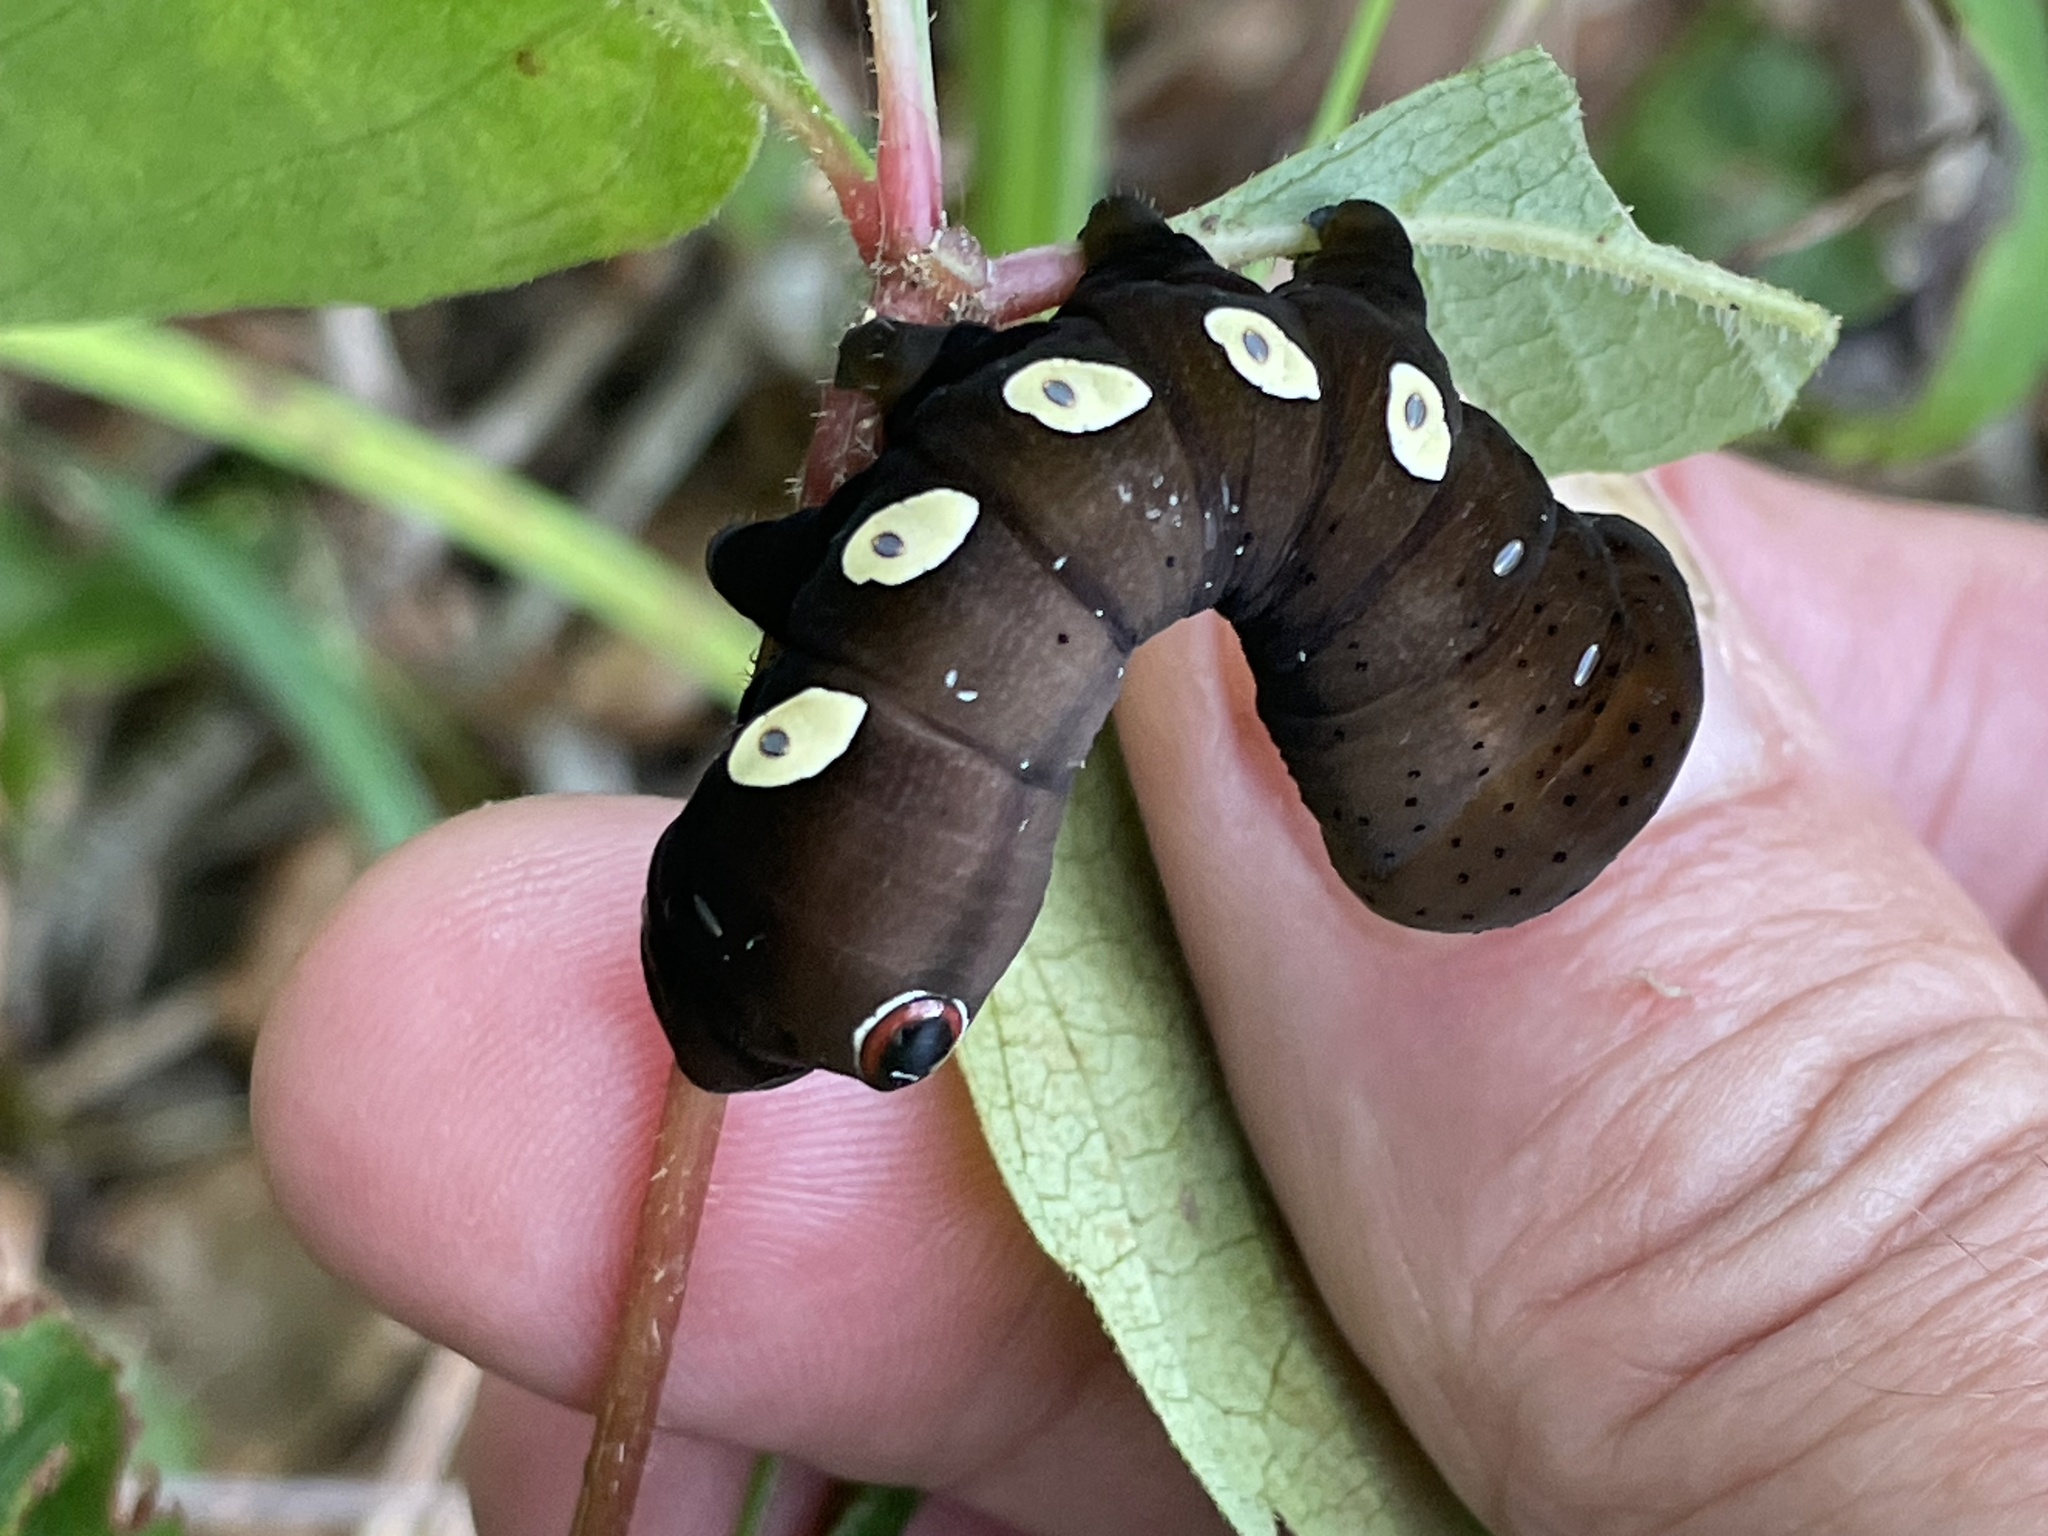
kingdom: Animalia
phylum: Arthropoda
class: Insecta
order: Lepidoptera
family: Sphingidae
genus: Eumorpha
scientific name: Eumorpha pandorus
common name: Pandora sphinx
